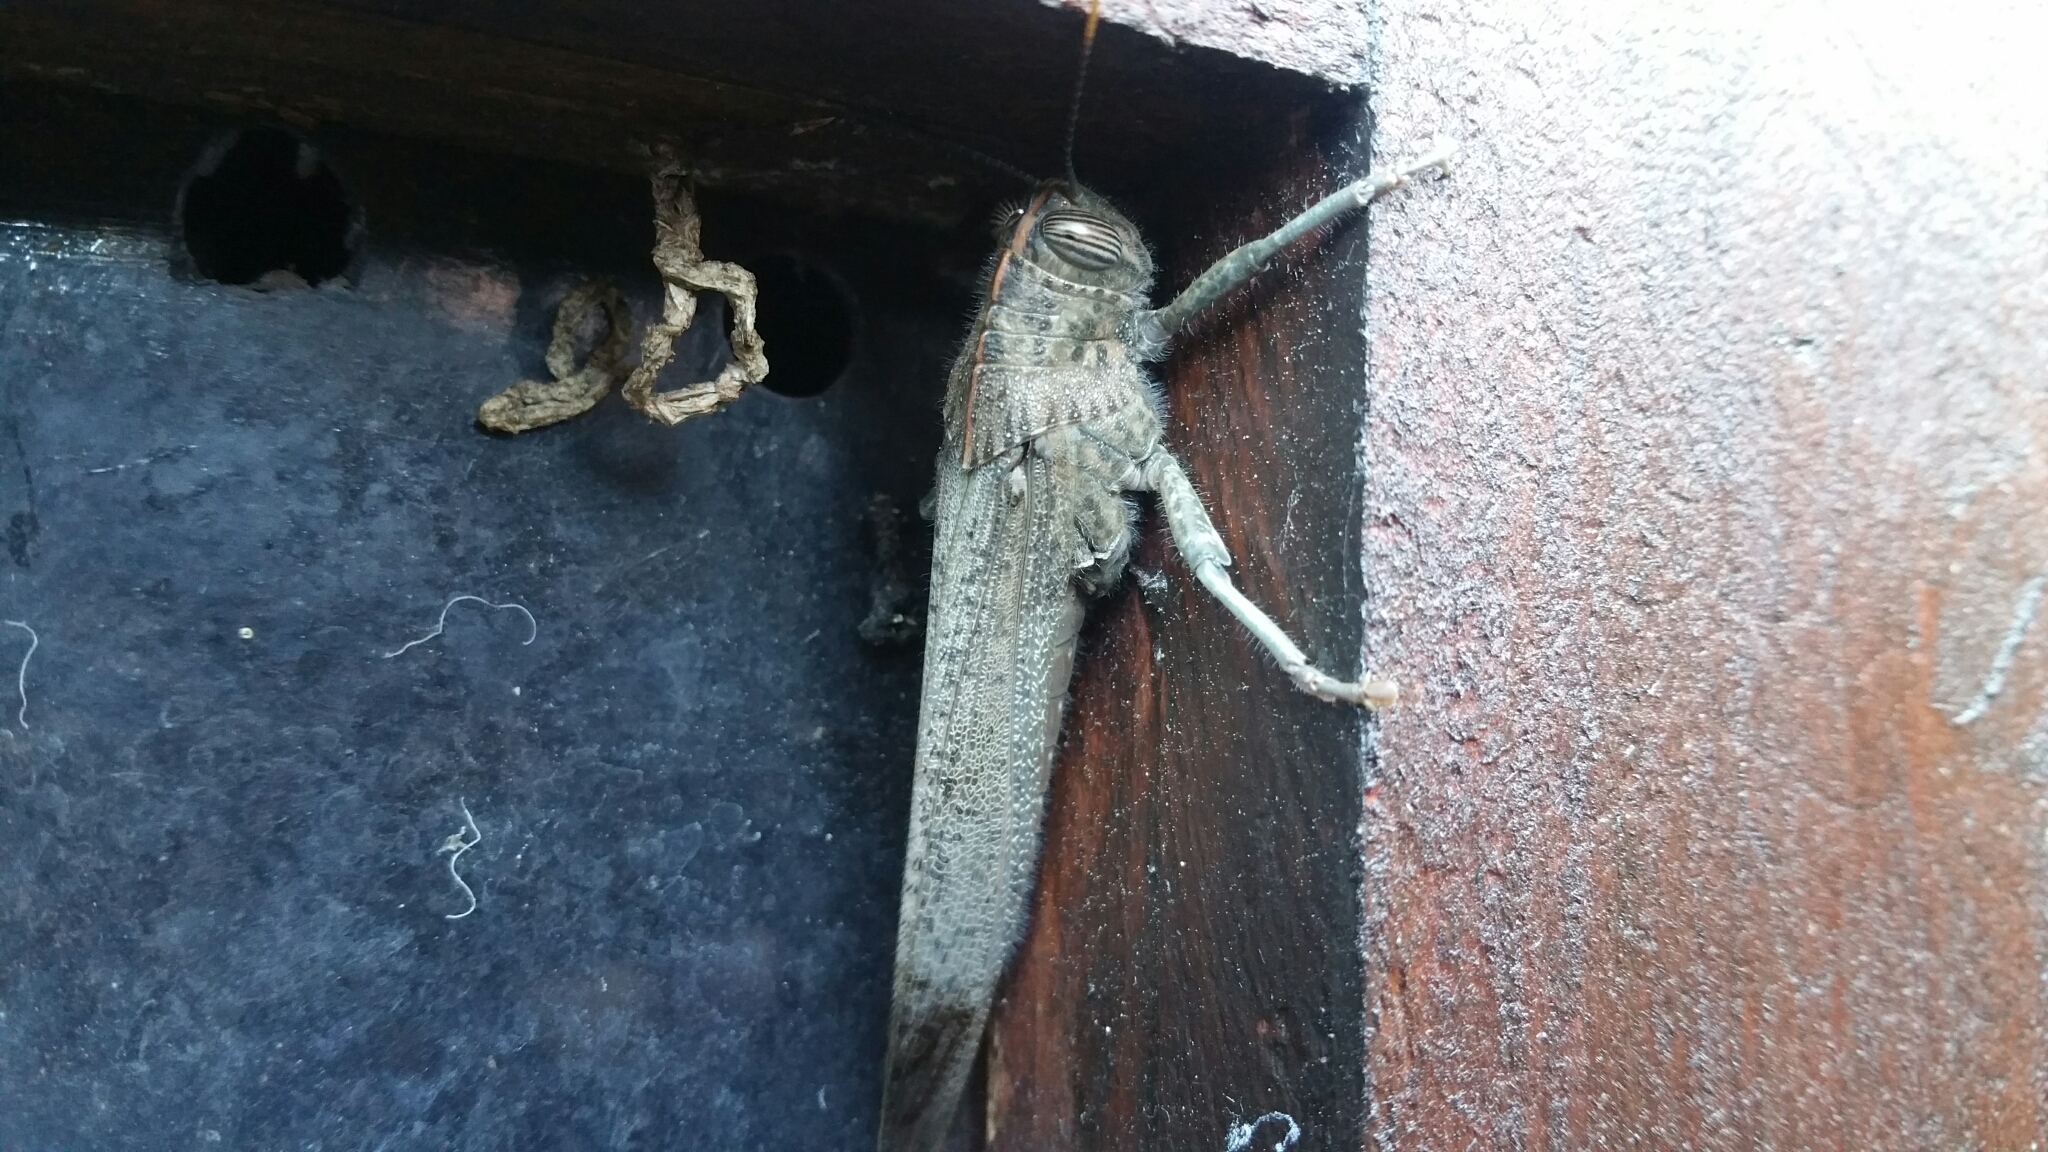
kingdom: Animalia
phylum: Arthropoda
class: Insecta
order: Orthoptera
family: Acrididae
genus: Anacridium
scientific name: Anacridium aegyptium
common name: Egyptian grasshopper
